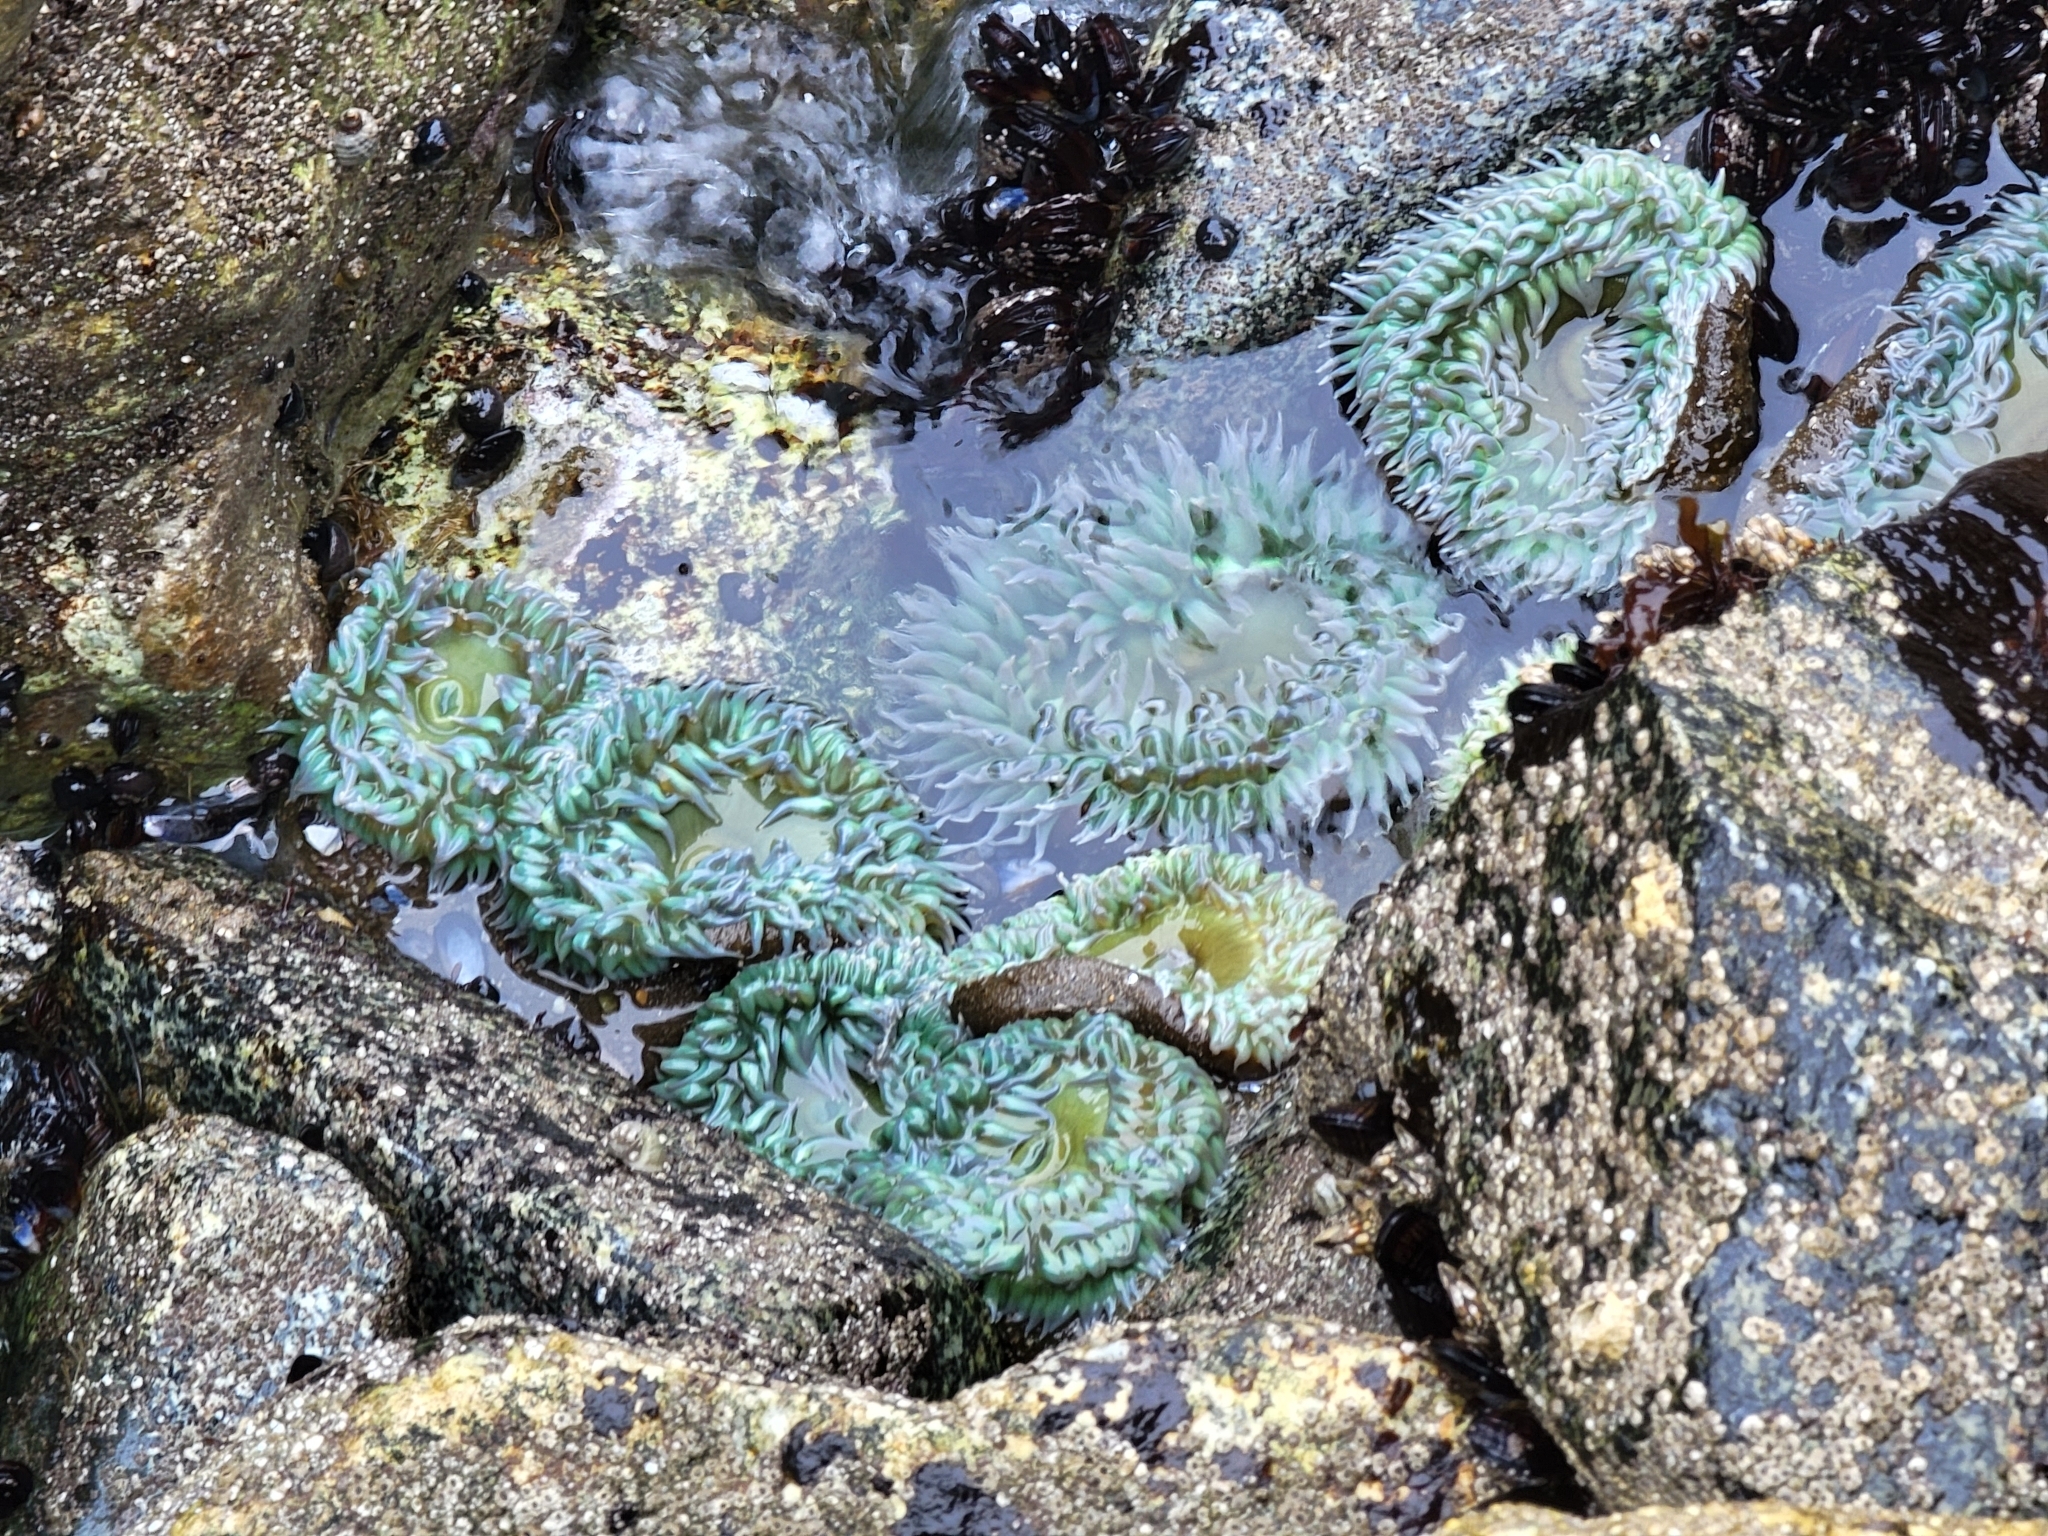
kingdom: Animalia
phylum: Cnidaria
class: Anthozoa
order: Actiniaria
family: Actiniidae
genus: Anthopleura
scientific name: Anthopleura xanthogrammica
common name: Giant green anemone
